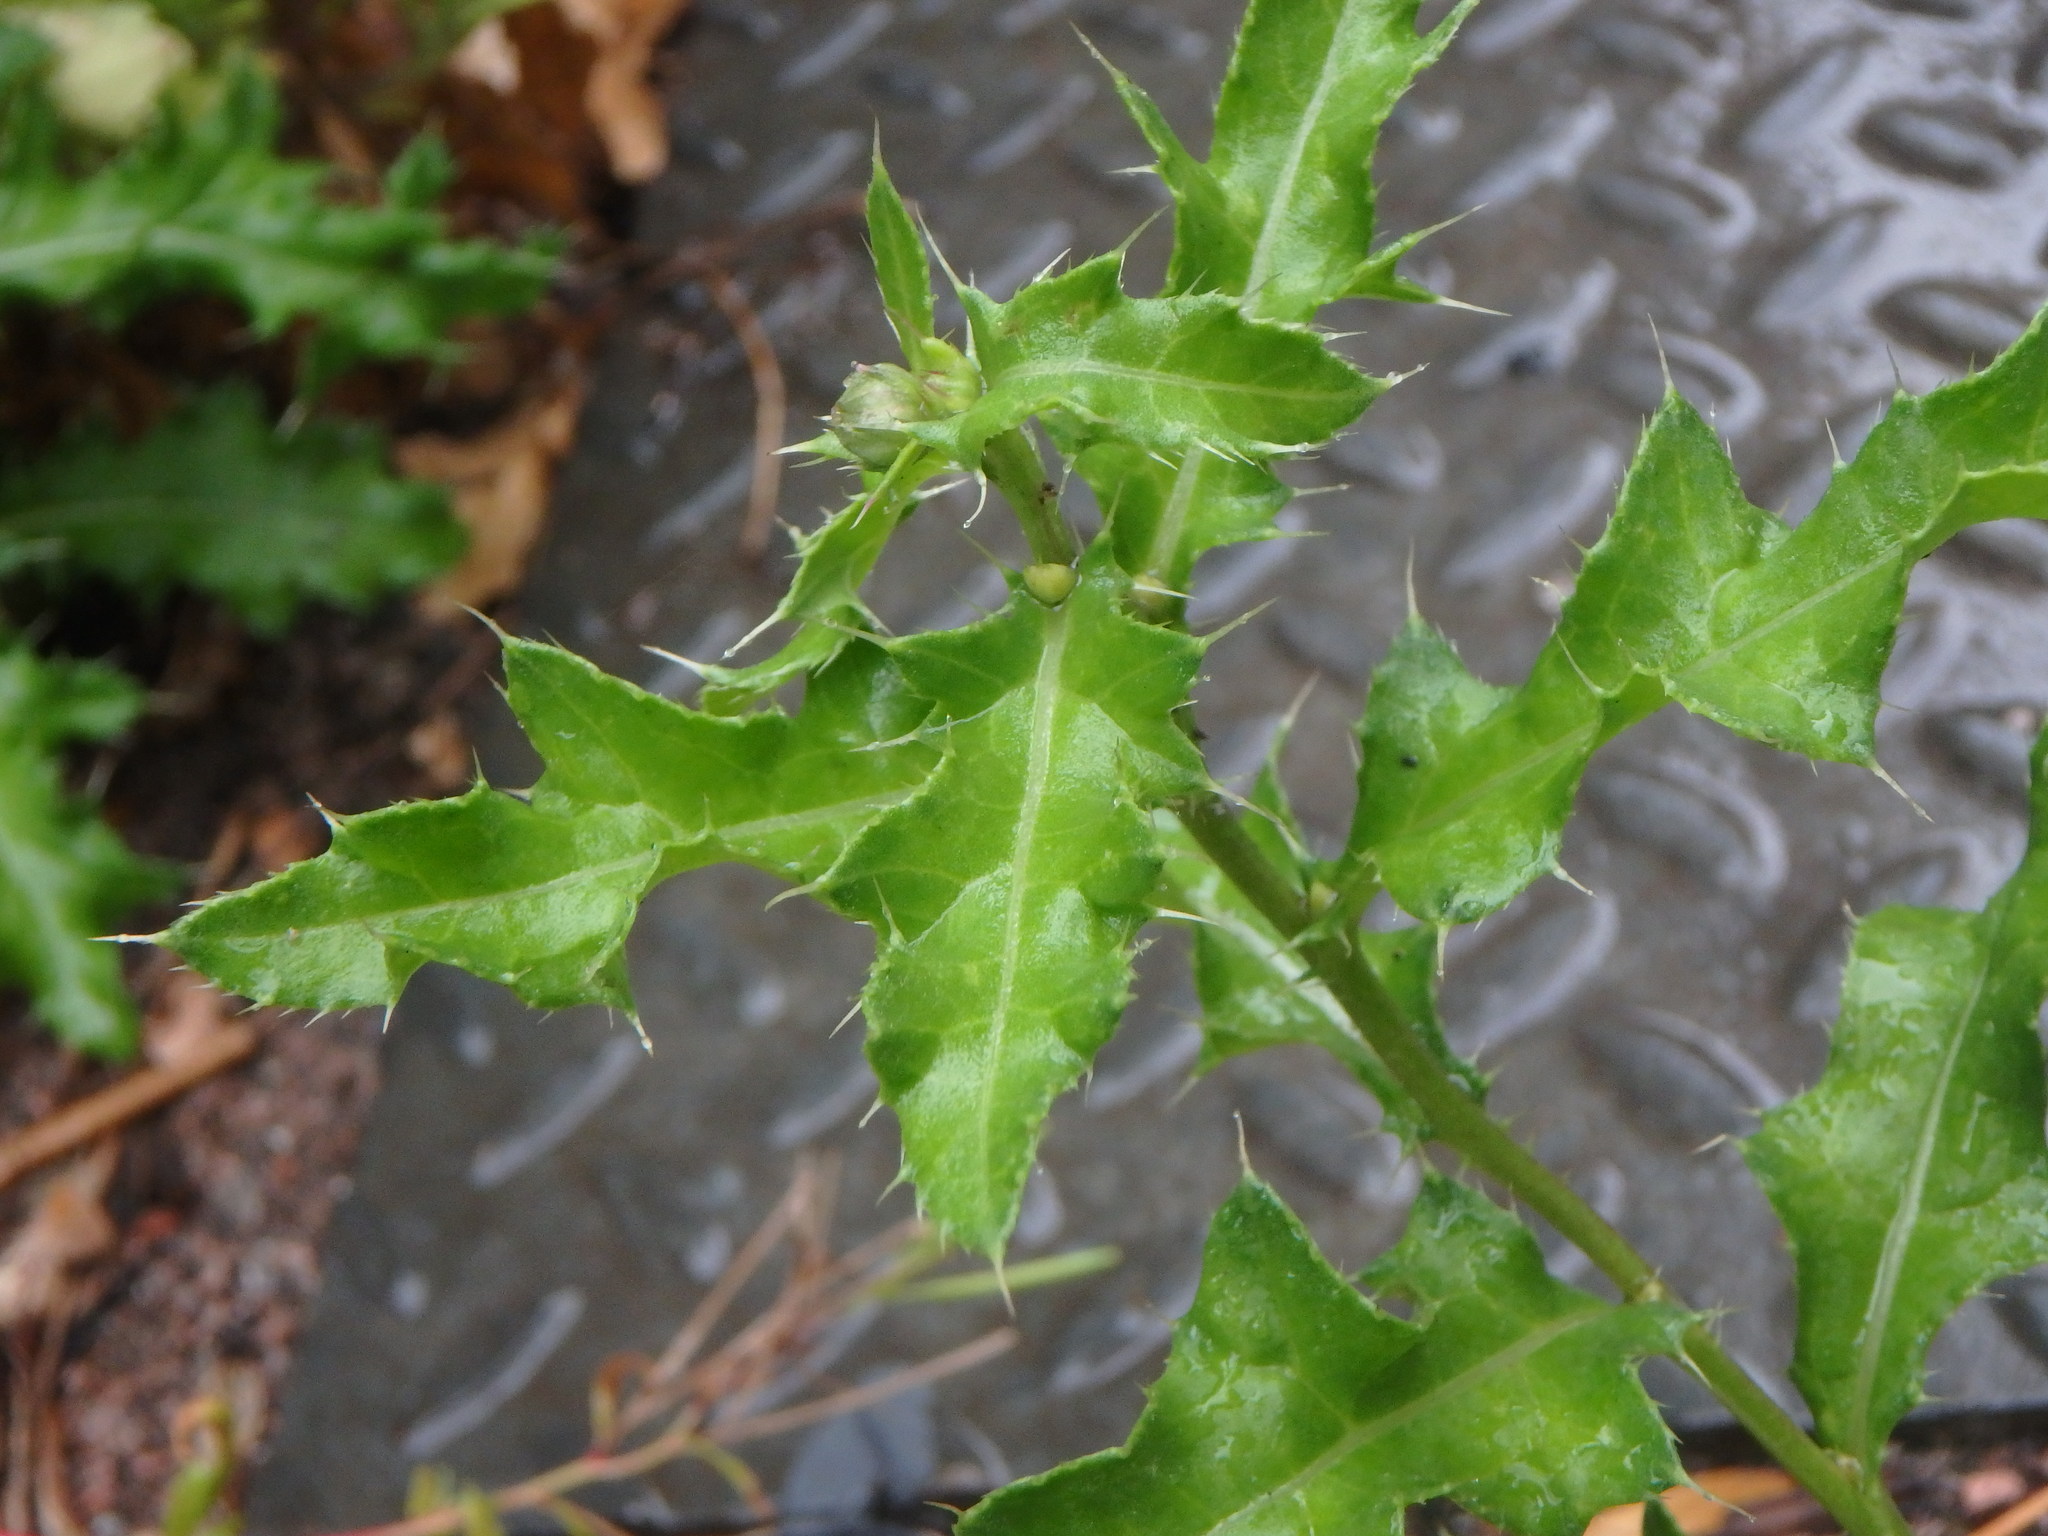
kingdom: Plantae
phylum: Tracheophyta
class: Magnoliopsida
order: Asterales
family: Asteraceae
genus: Cirsium
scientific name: Cirsium arvense
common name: Creeping thistle
